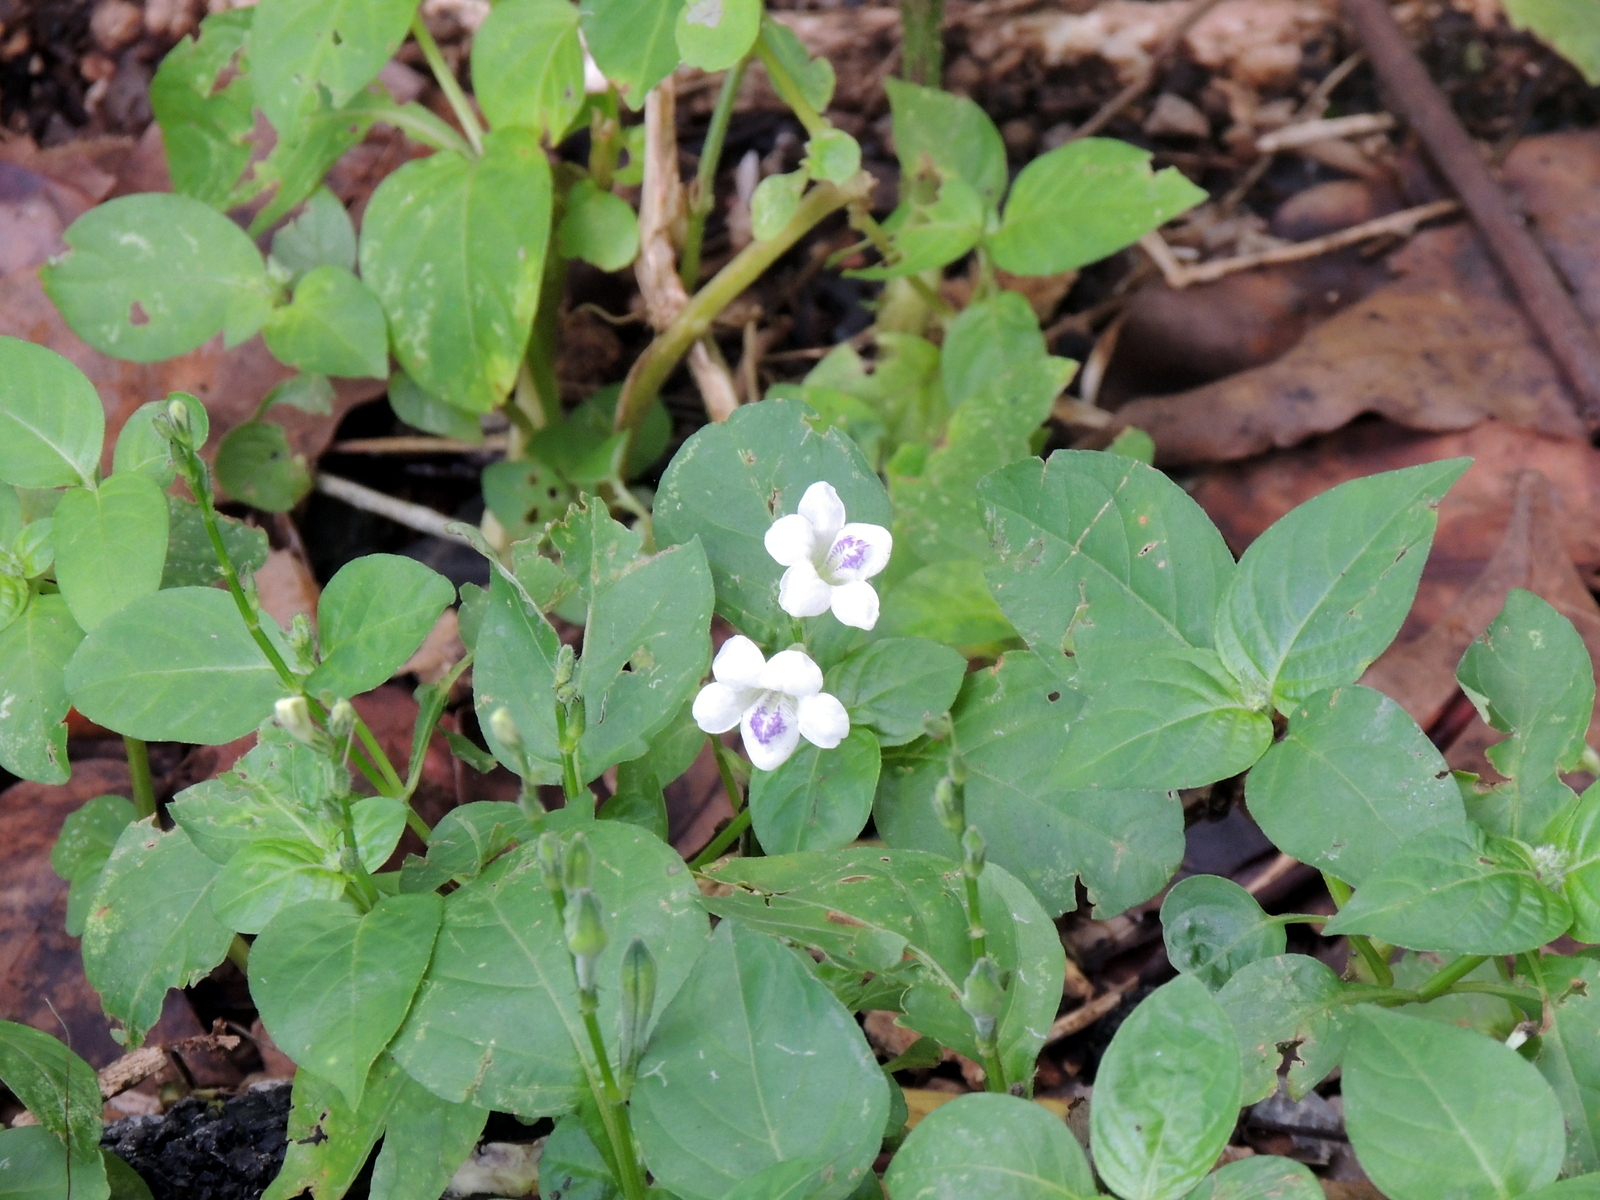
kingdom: Plantae
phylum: Tracheophyta
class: Magnoliopsida
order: Lamiales
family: Acanthaceae
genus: Asystasia
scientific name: Asystasia intrusa
